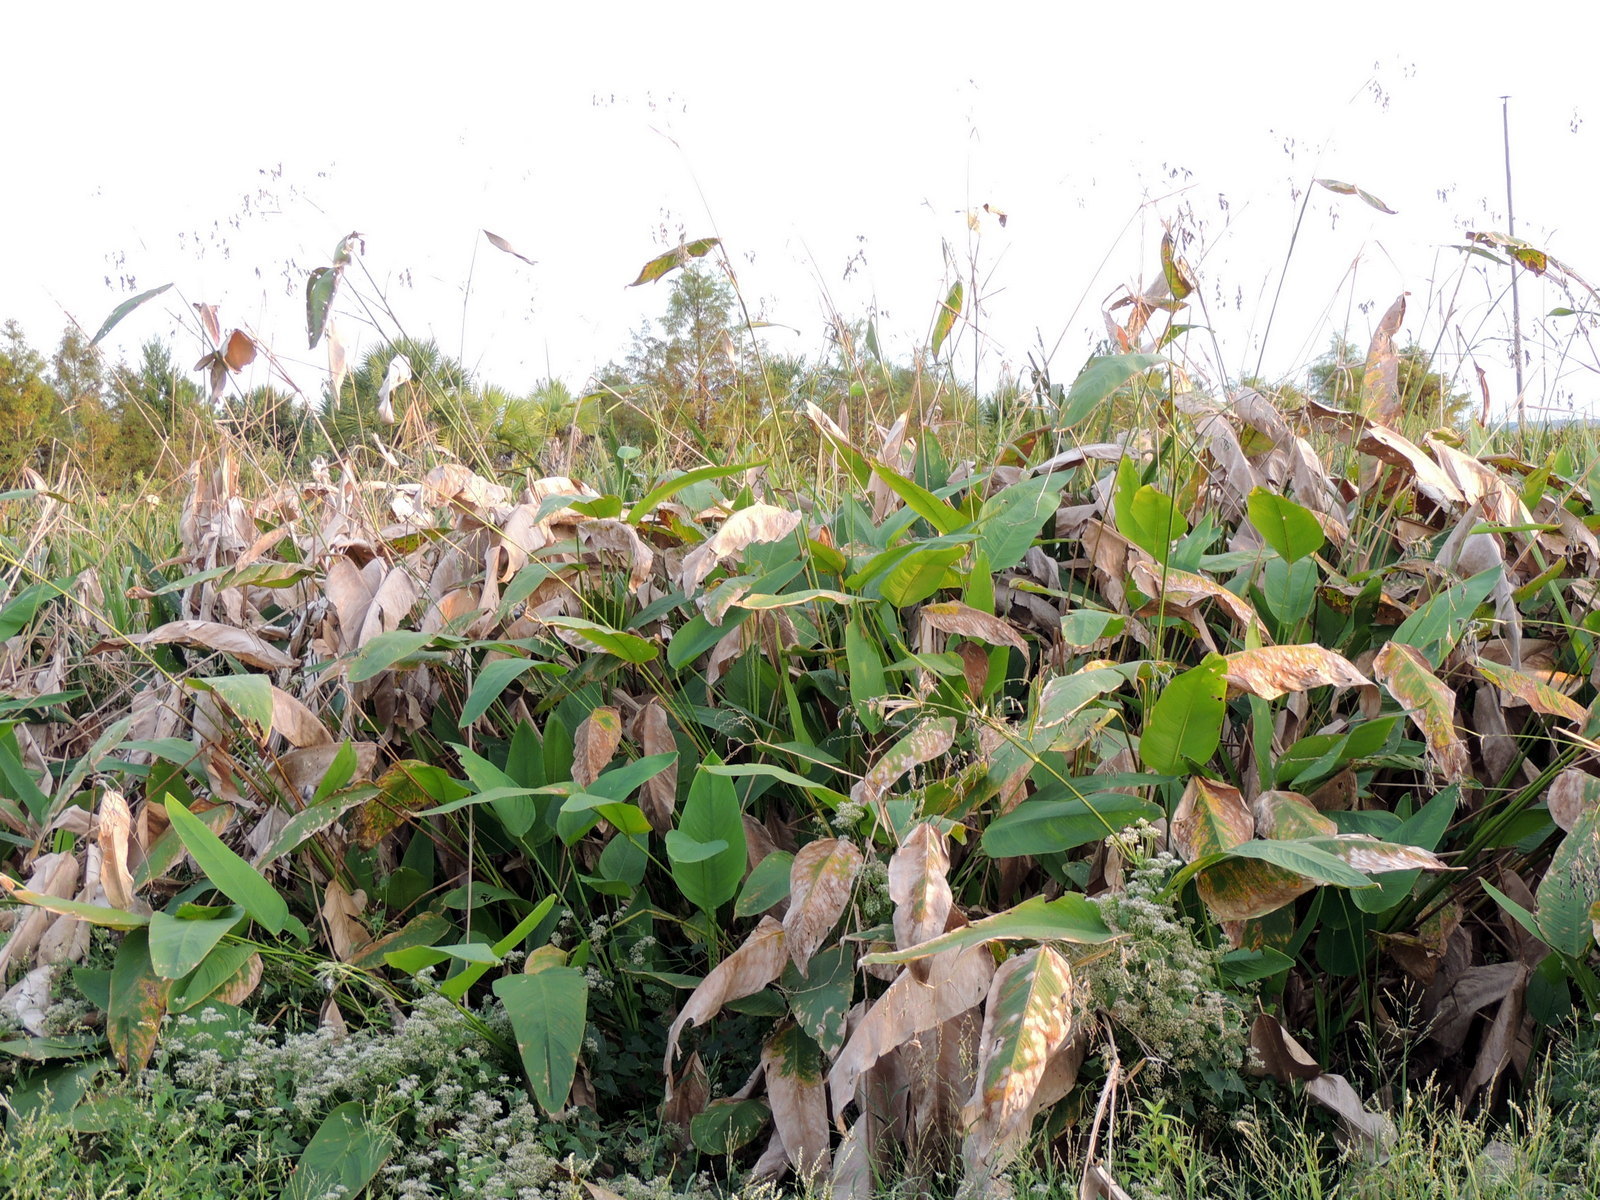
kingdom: Plantae
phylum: Tracheophyta
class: Liliopsida
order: Zingiberales
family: Marantaceae
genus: Thalia
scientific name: Thalia geniculata
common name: Arrowroot
